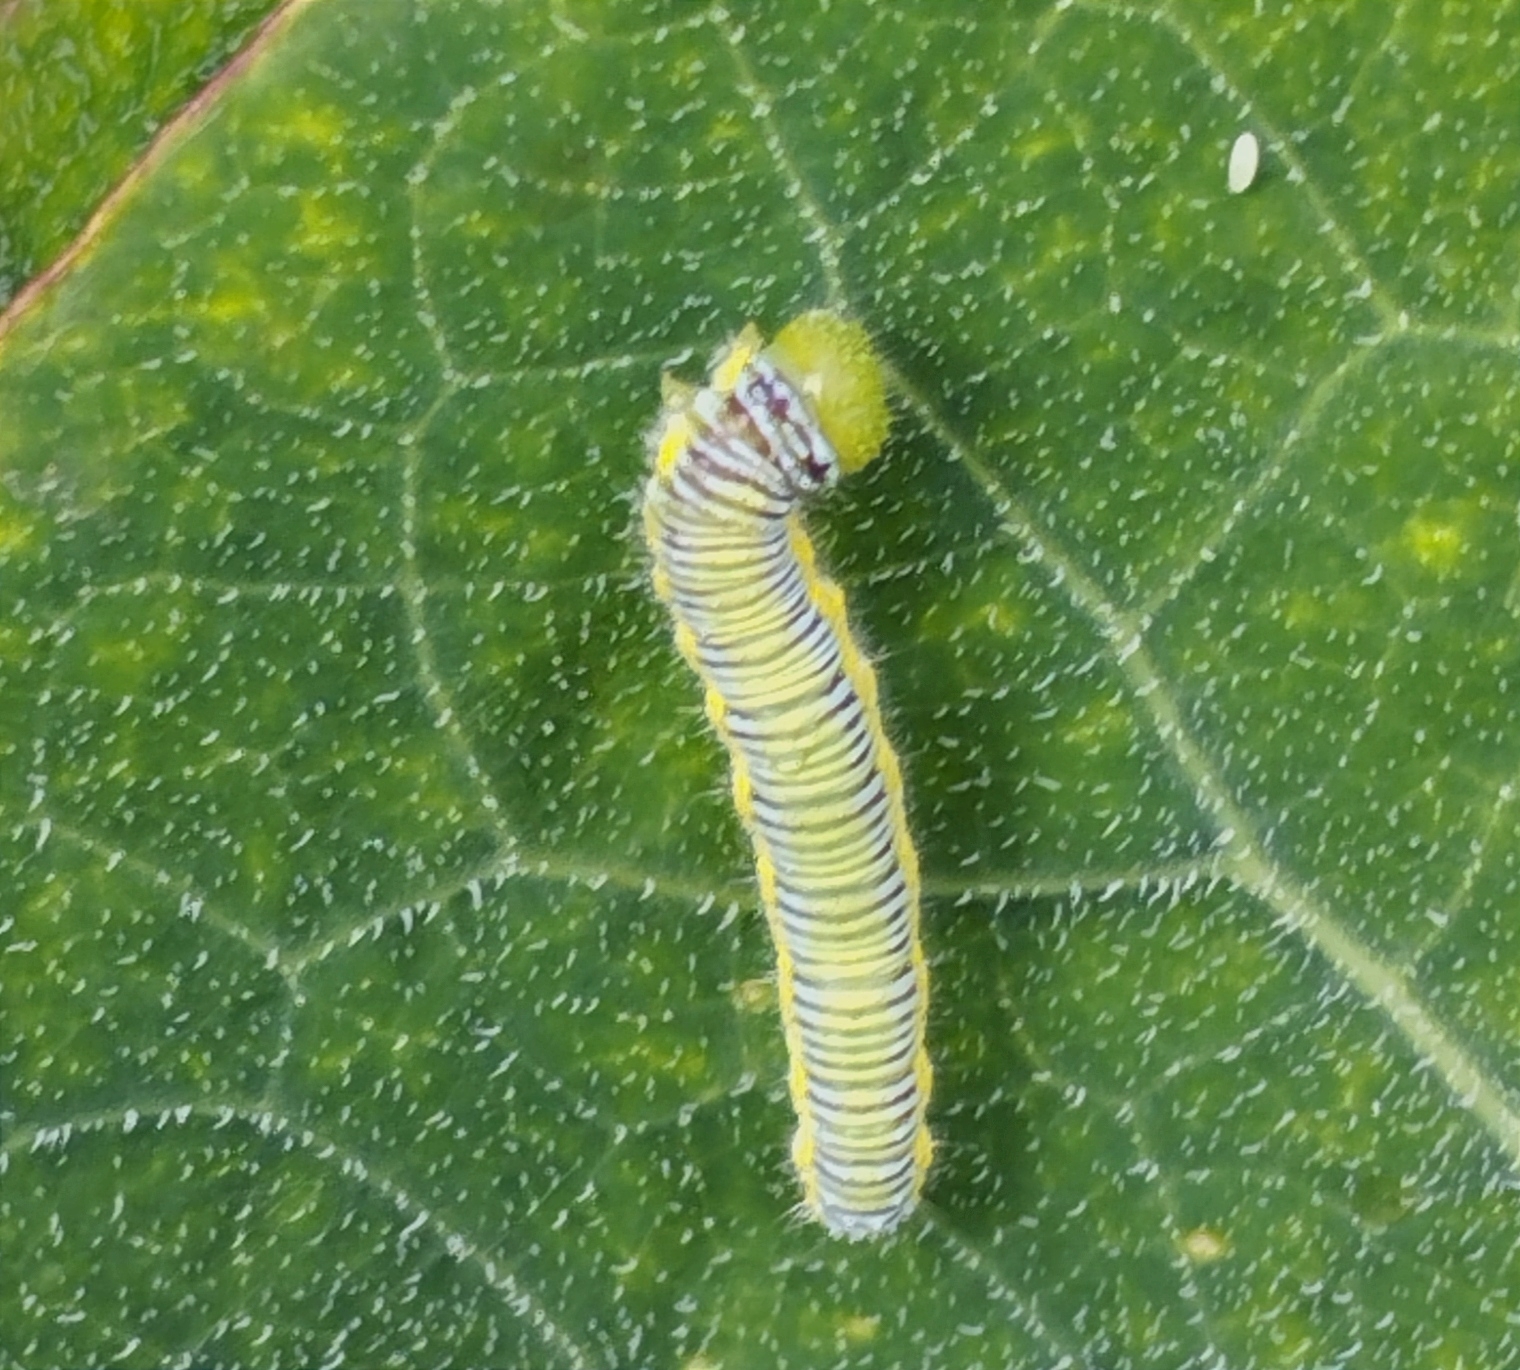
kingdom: Animalia
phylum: Arthropoda
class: Insecta
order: Lepidoptera
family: Pieridae
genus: Leptophobia
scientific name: Leptophobia aripa
